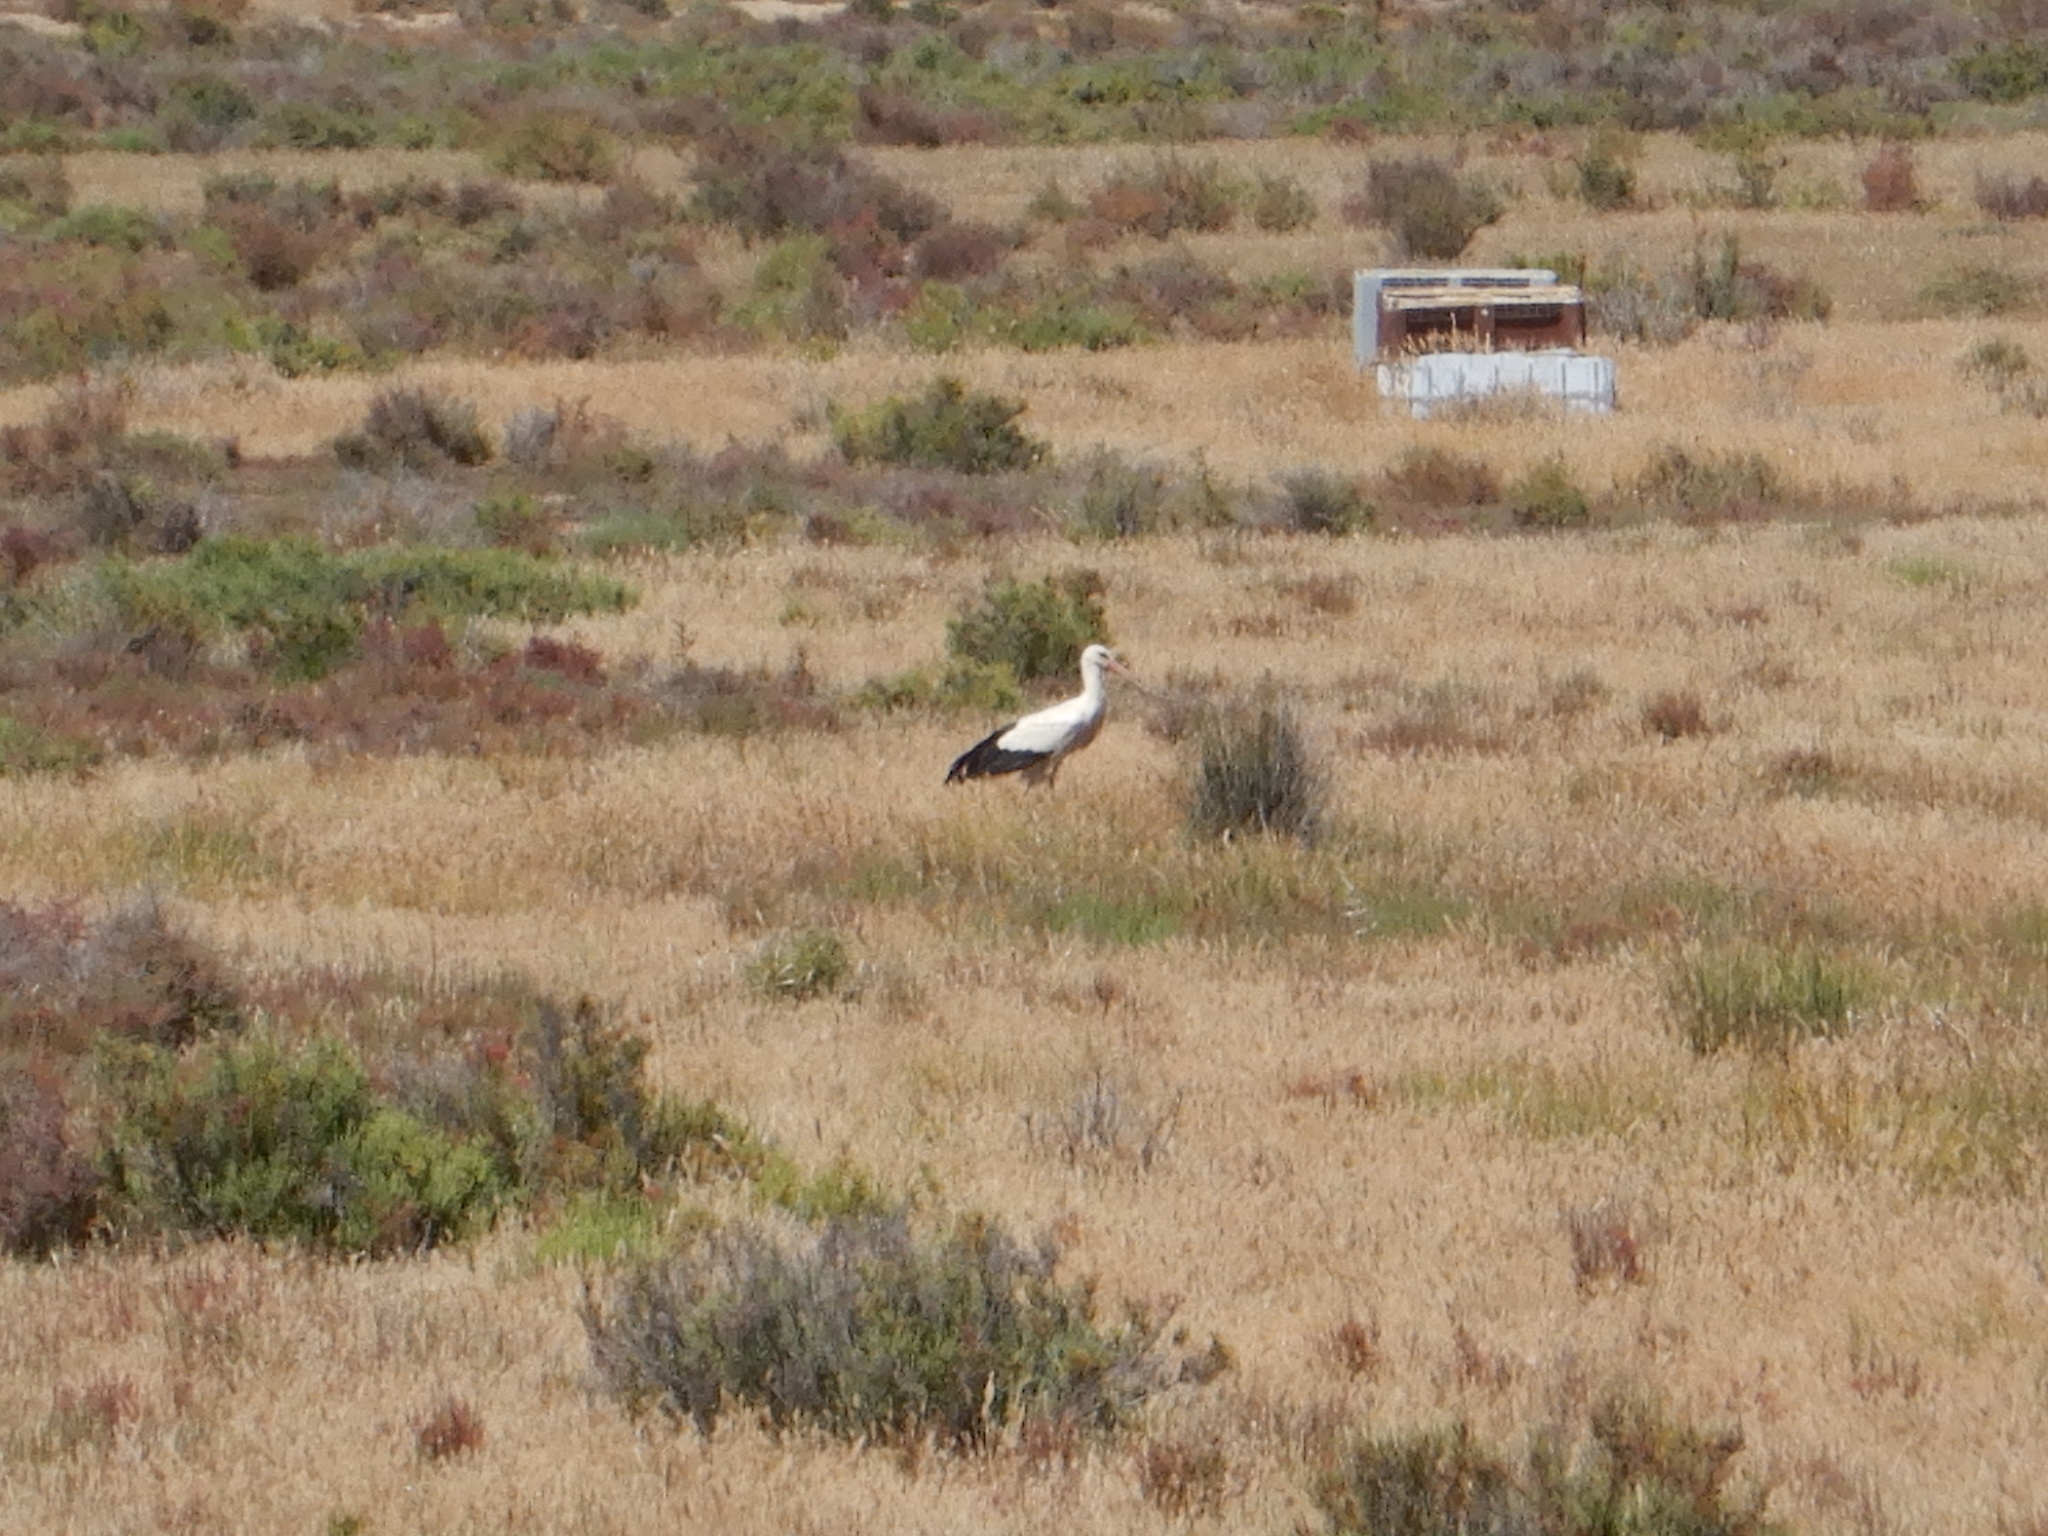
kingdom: Animalia
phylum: Chordata
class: Aves
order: Ciconiiformes
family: Ciconiidae
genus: Ciconia
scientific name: Ciconia ciconia
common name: White stork
